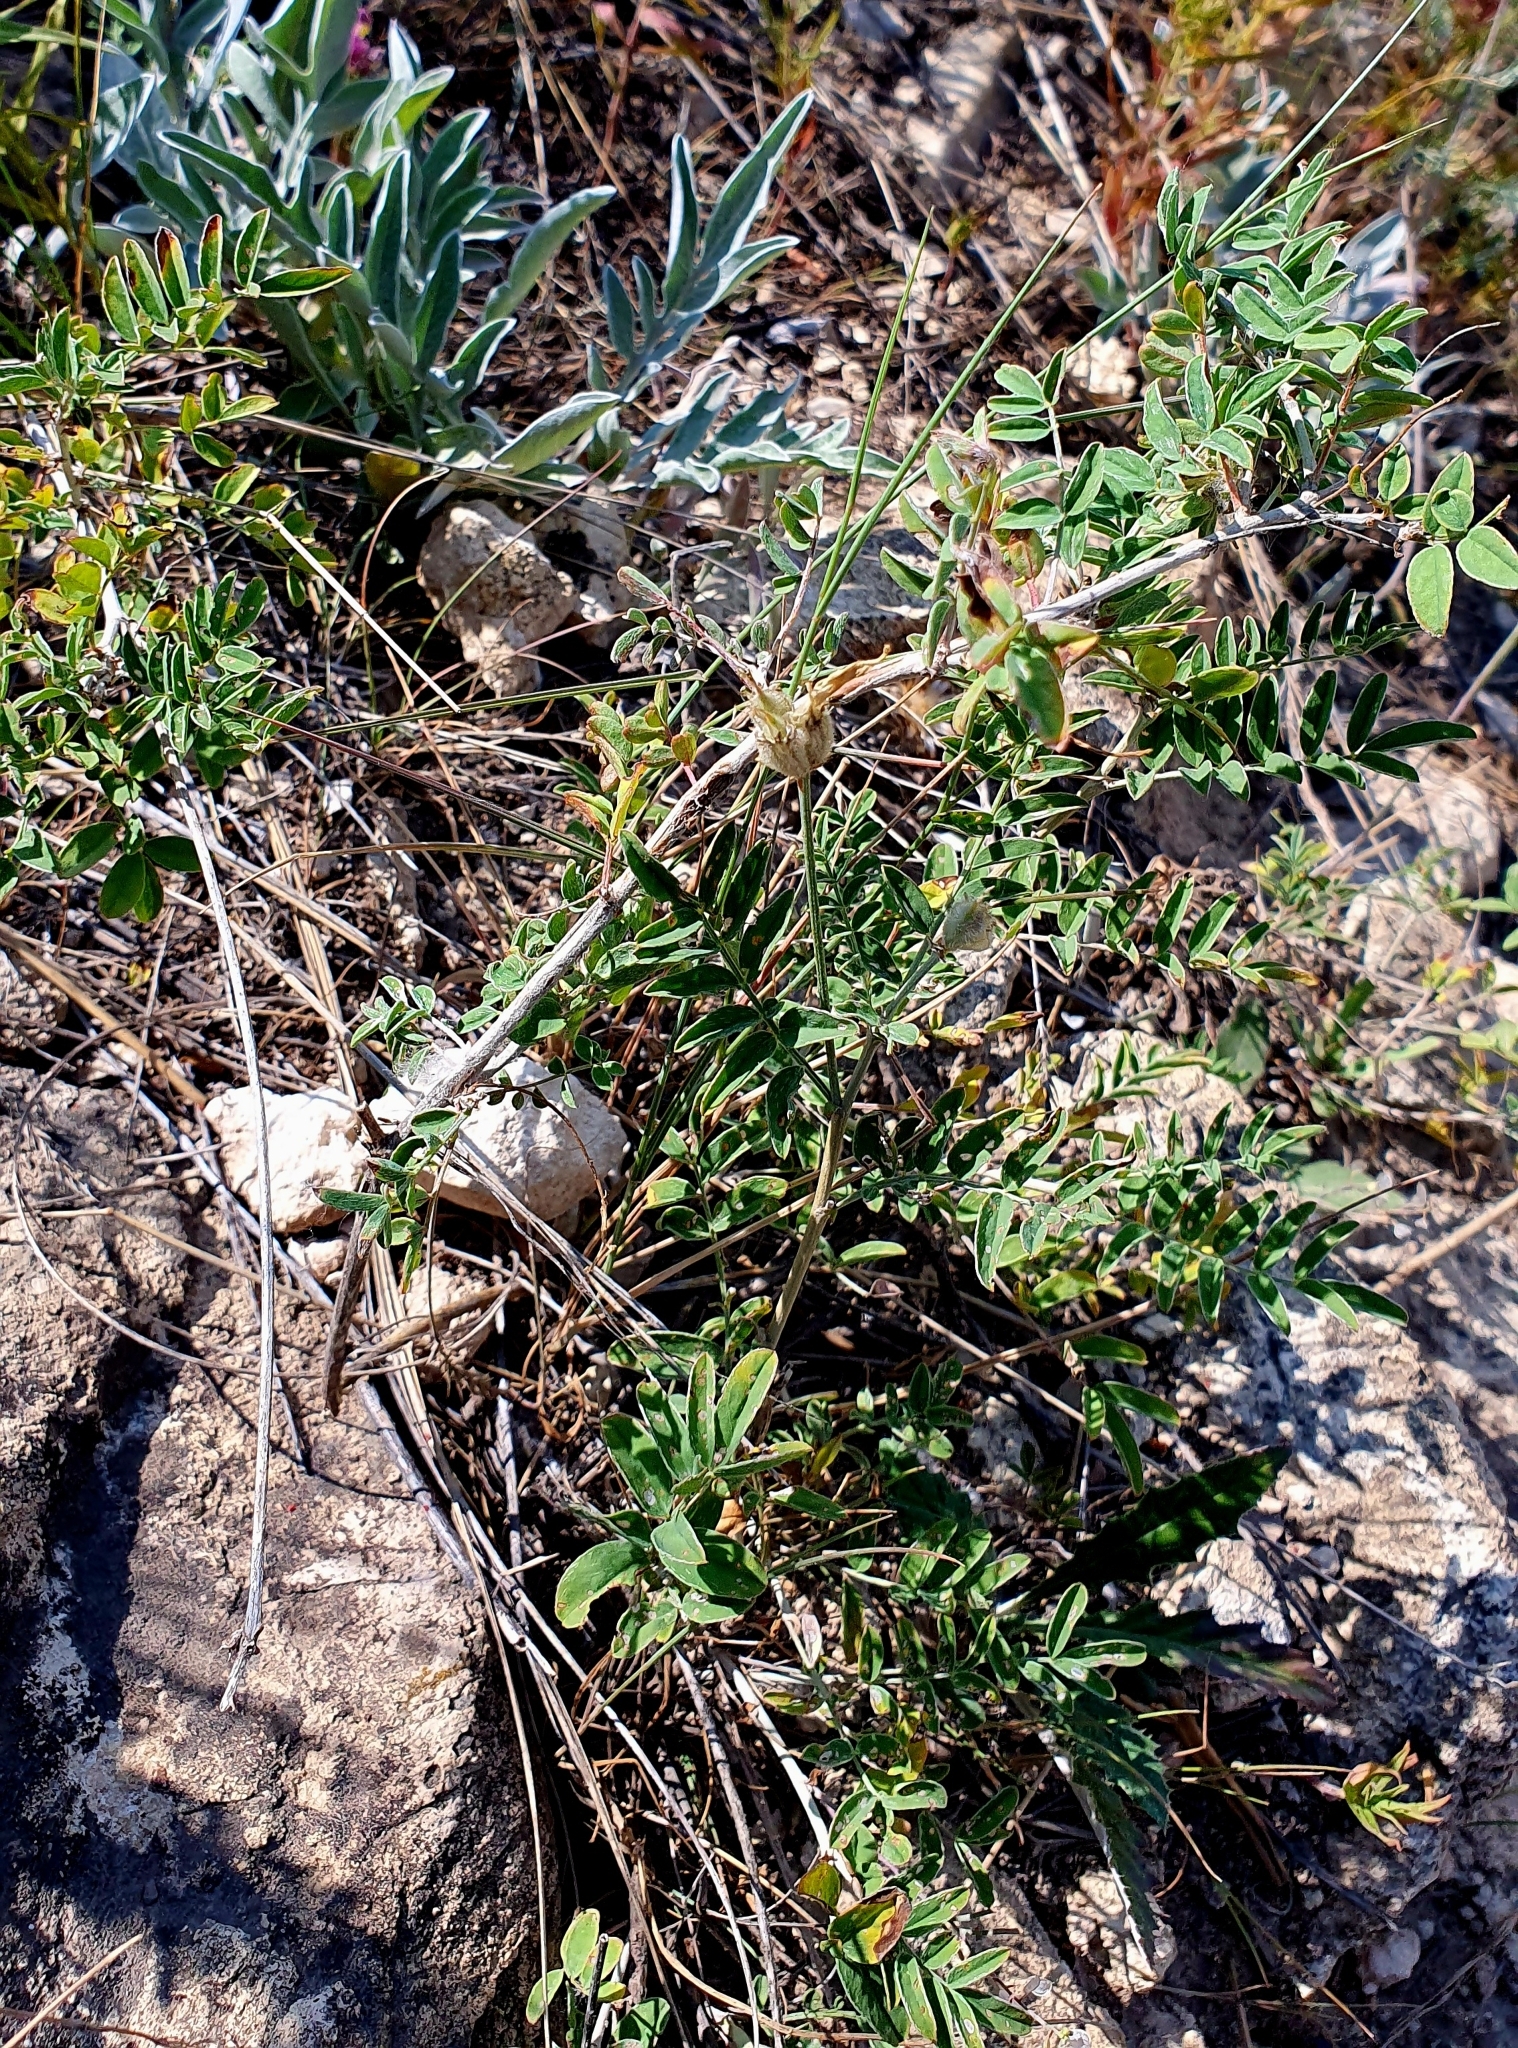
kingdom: Plantae
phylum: Tracheophyta
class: Magnoliopsida
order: Fabales
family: Fabaceae
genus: Astragalus
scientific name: Astragalus zingeri
